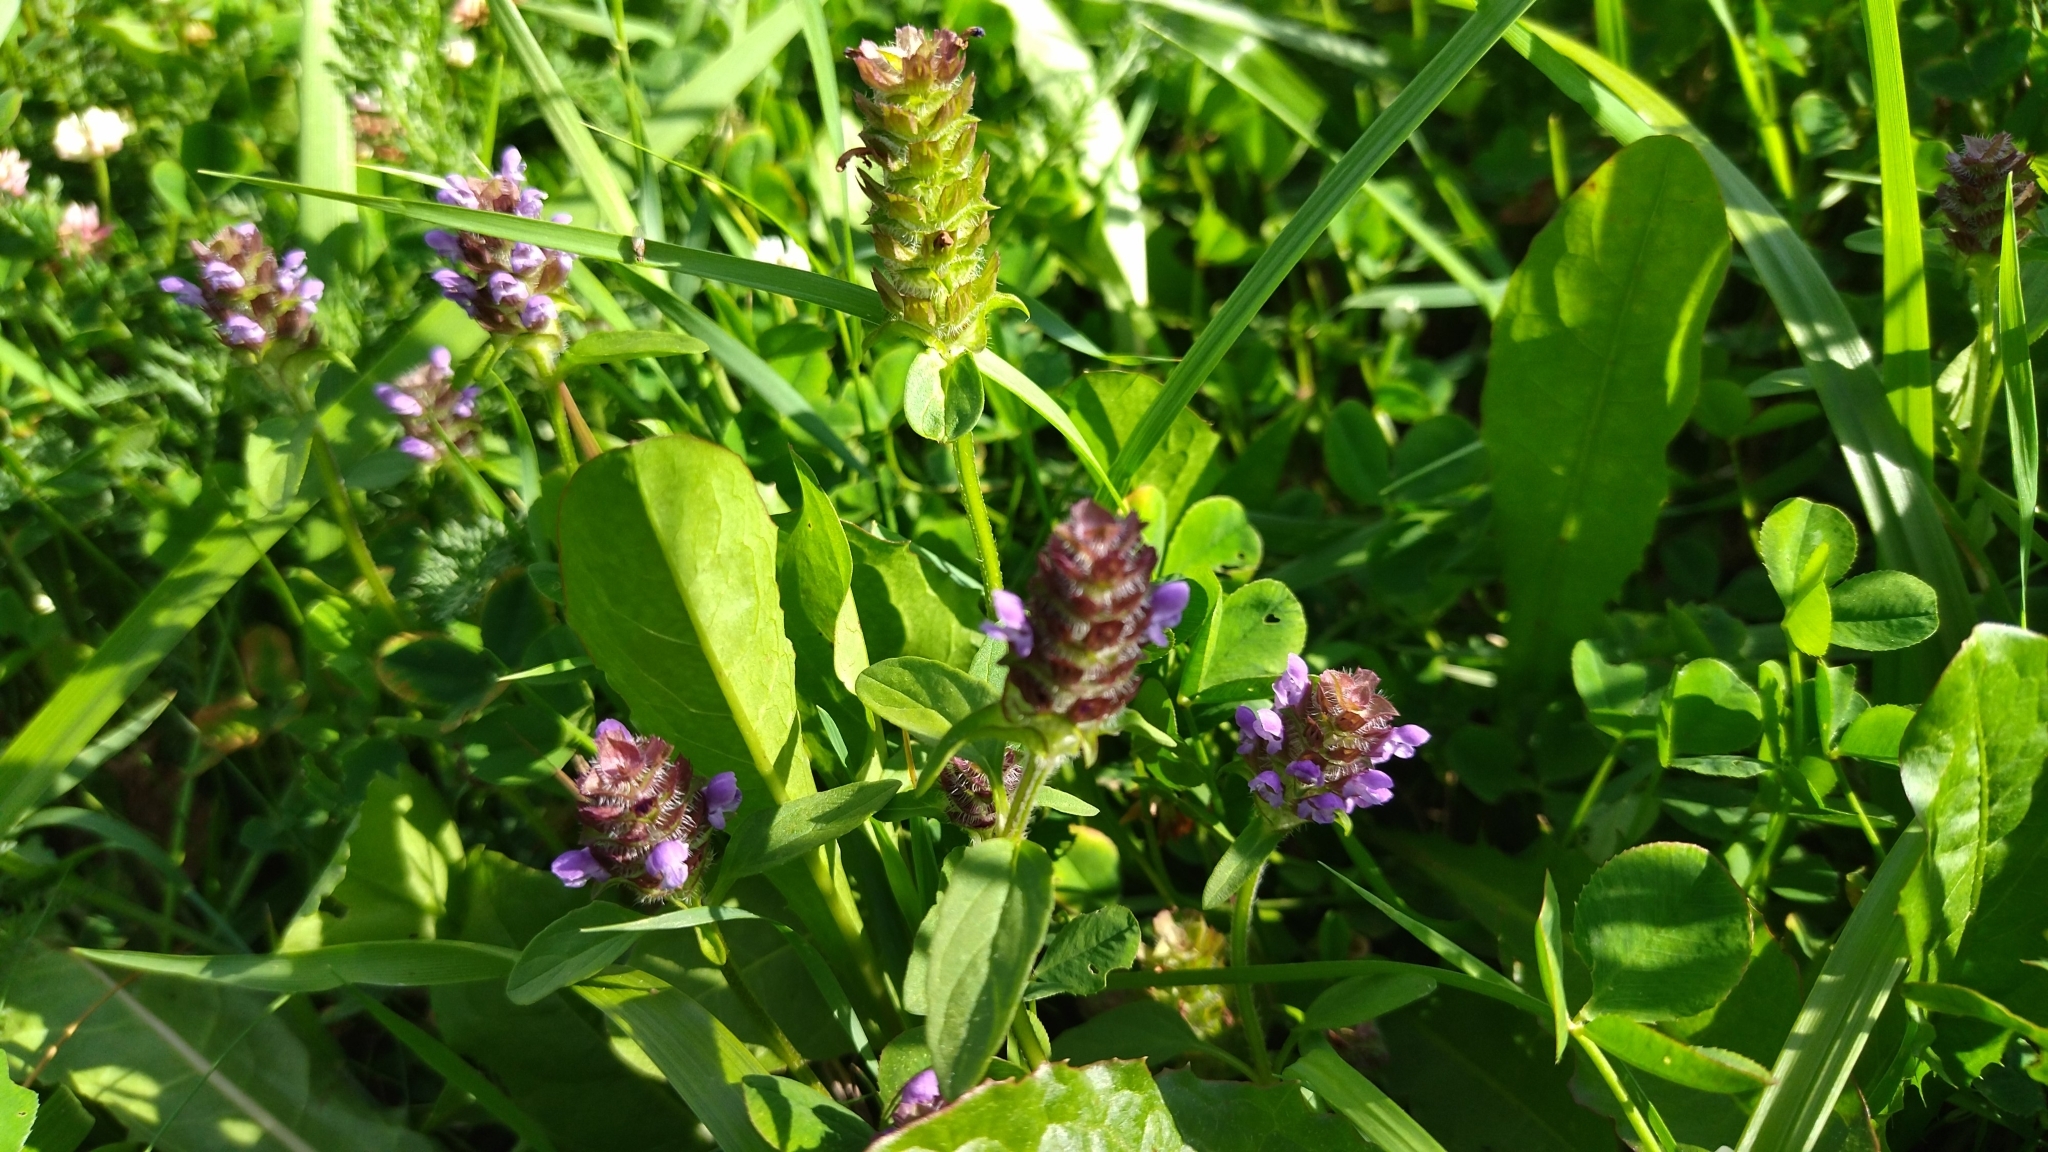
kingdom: Plantae
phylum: Tracheophyta
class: Magnoliopsida
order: Lamiales
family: Lamiaceae
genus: Prunella
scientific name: Prunella vulgaris
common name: Heal-all
